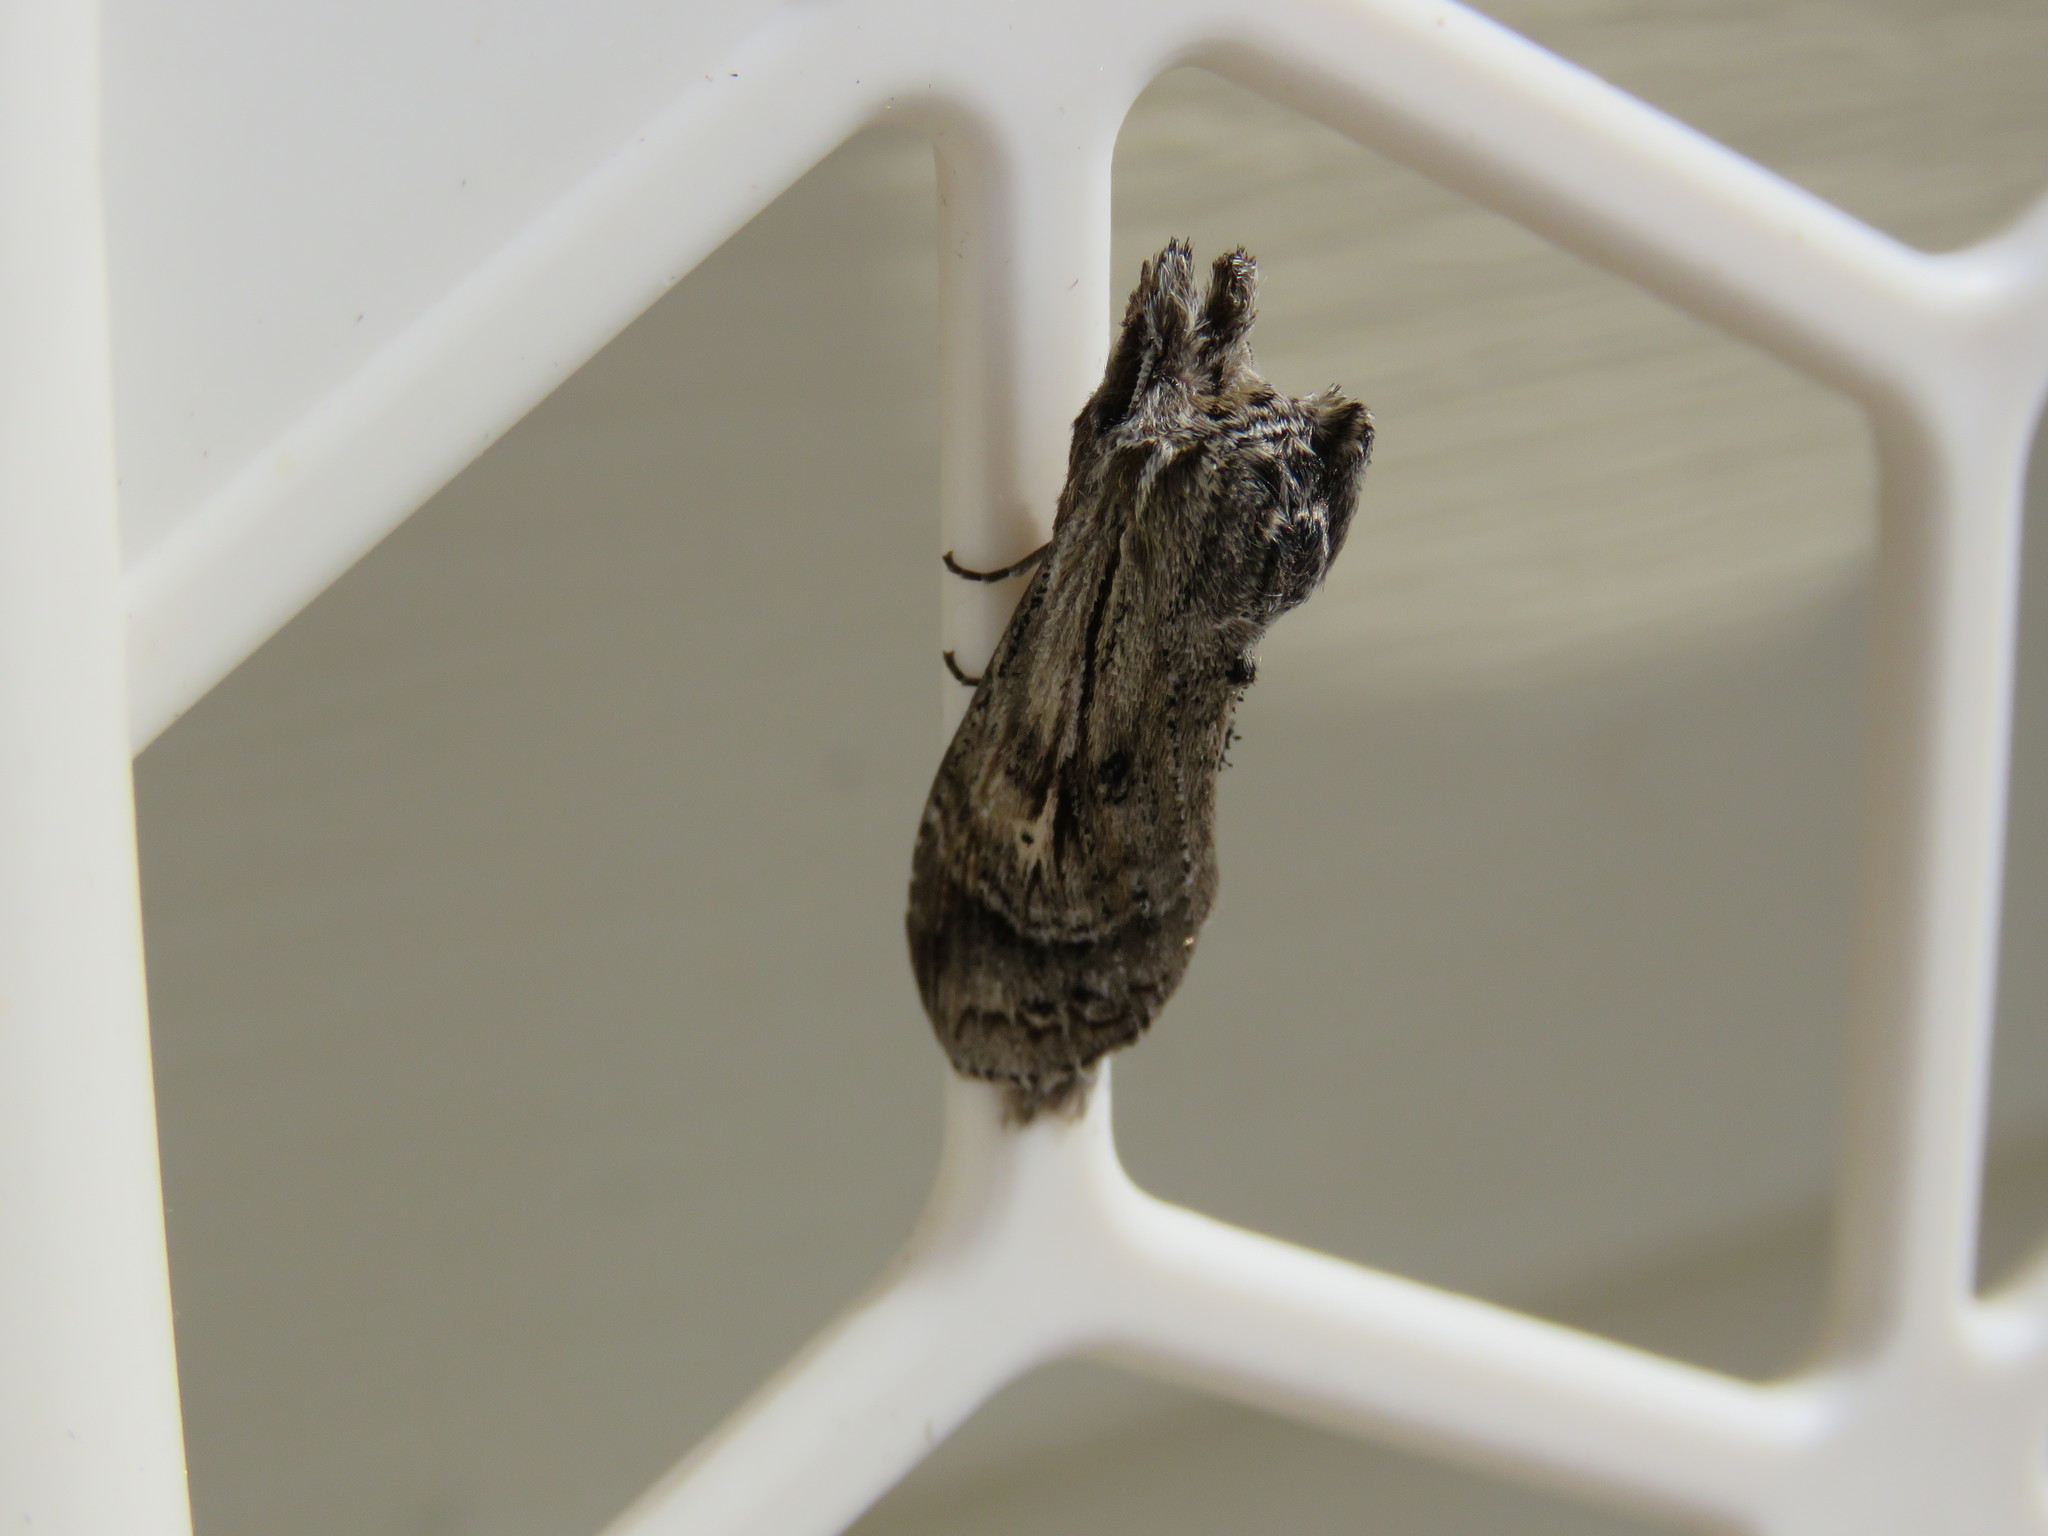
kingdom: Animalia
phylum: Arthropoda
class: Insecta
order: Lepidoptera
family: Notodontidae
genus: Dasylophia
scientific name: Dasylophia anguina
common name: Black-spotted prominent
